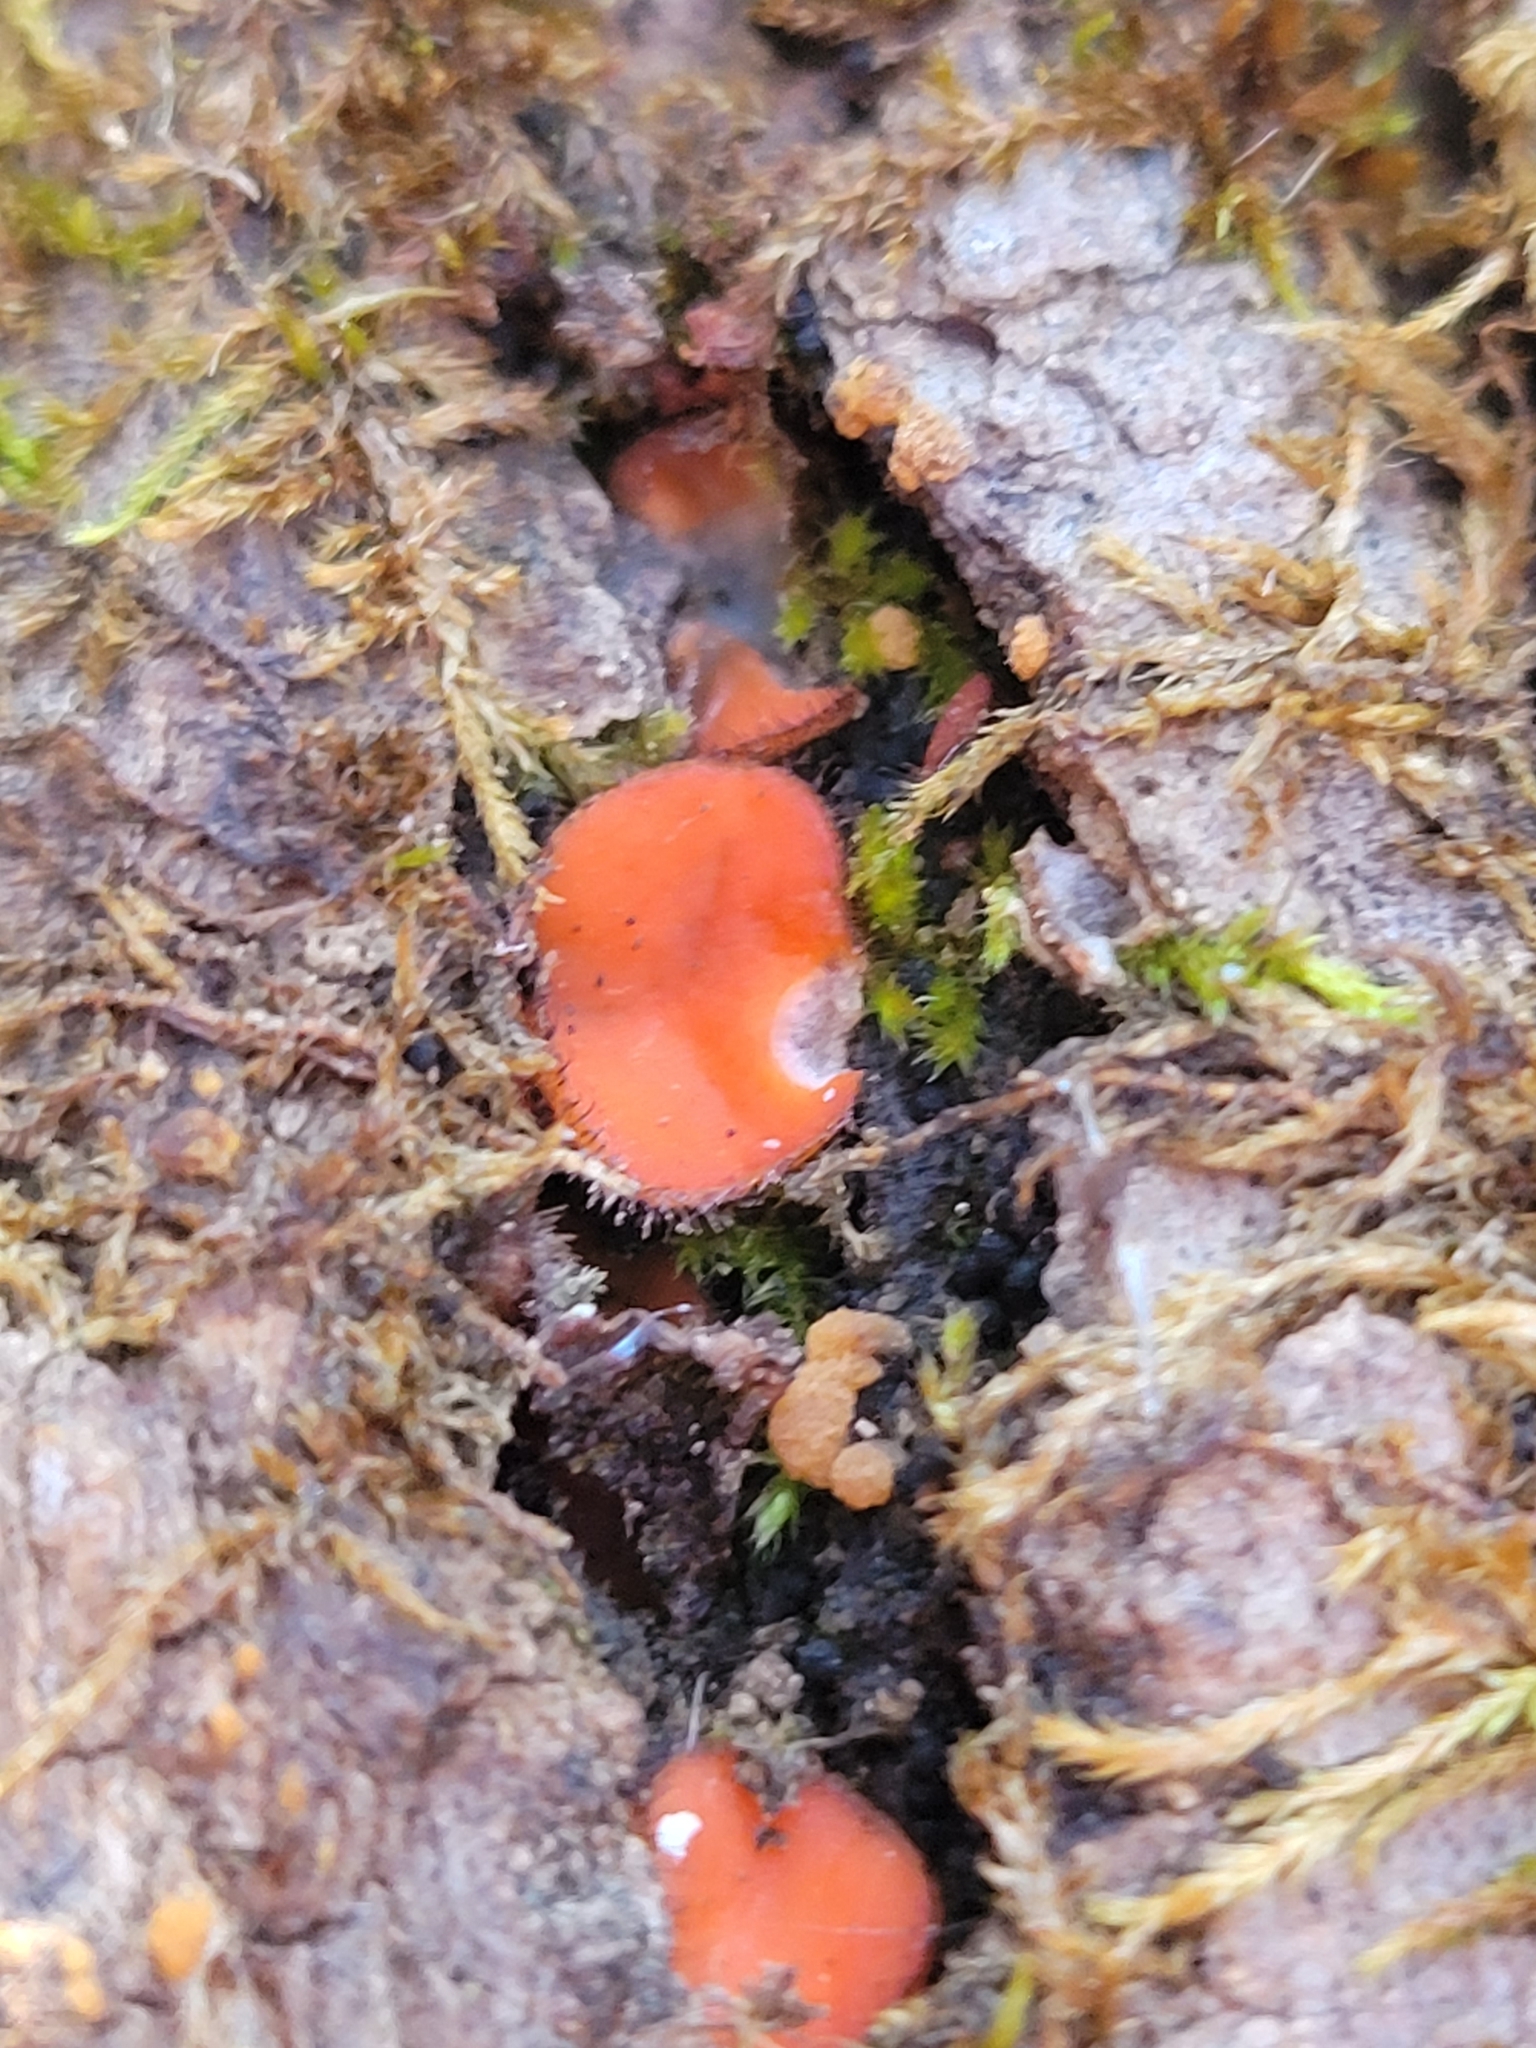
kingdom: Fungi
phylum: Ascomycota
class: Pezizomycetes
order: Pezizales
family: Pyronemataceae
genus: Scutellinia
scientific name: Scutellinia scutellata
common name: Common eyelash
